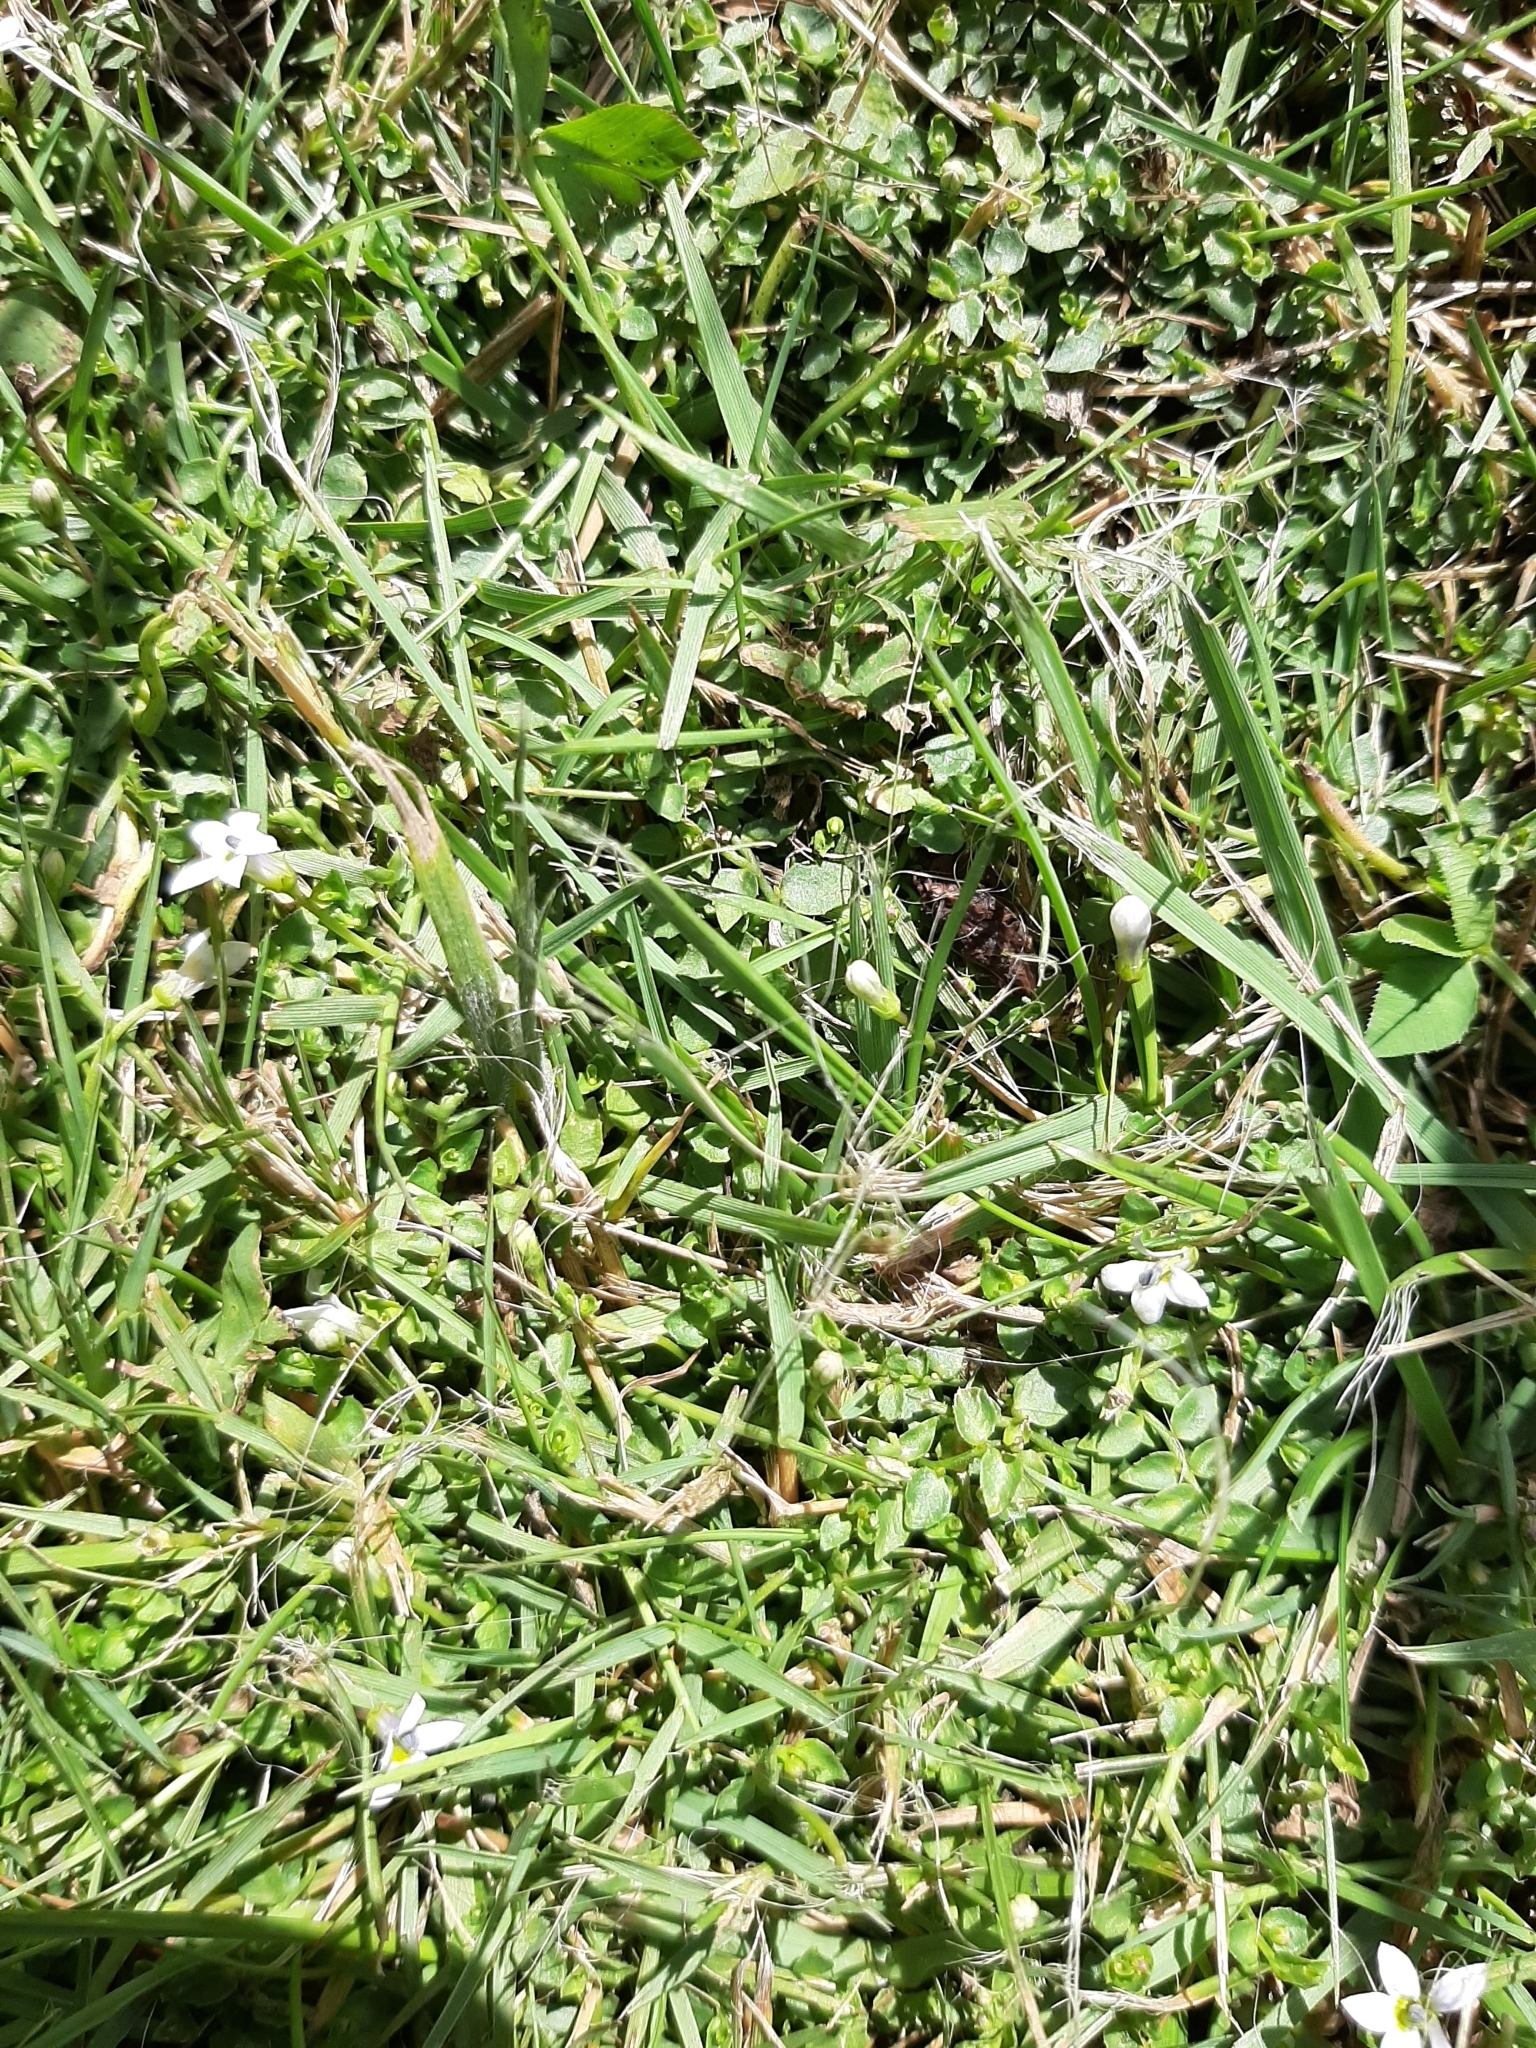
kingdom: Plantae
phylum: Tracheophyta
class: Magnoliopsida
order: Asterales
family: Campanulaceae
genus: Lobelia
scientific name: Lobelia angulata
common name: Lawn lobelia
